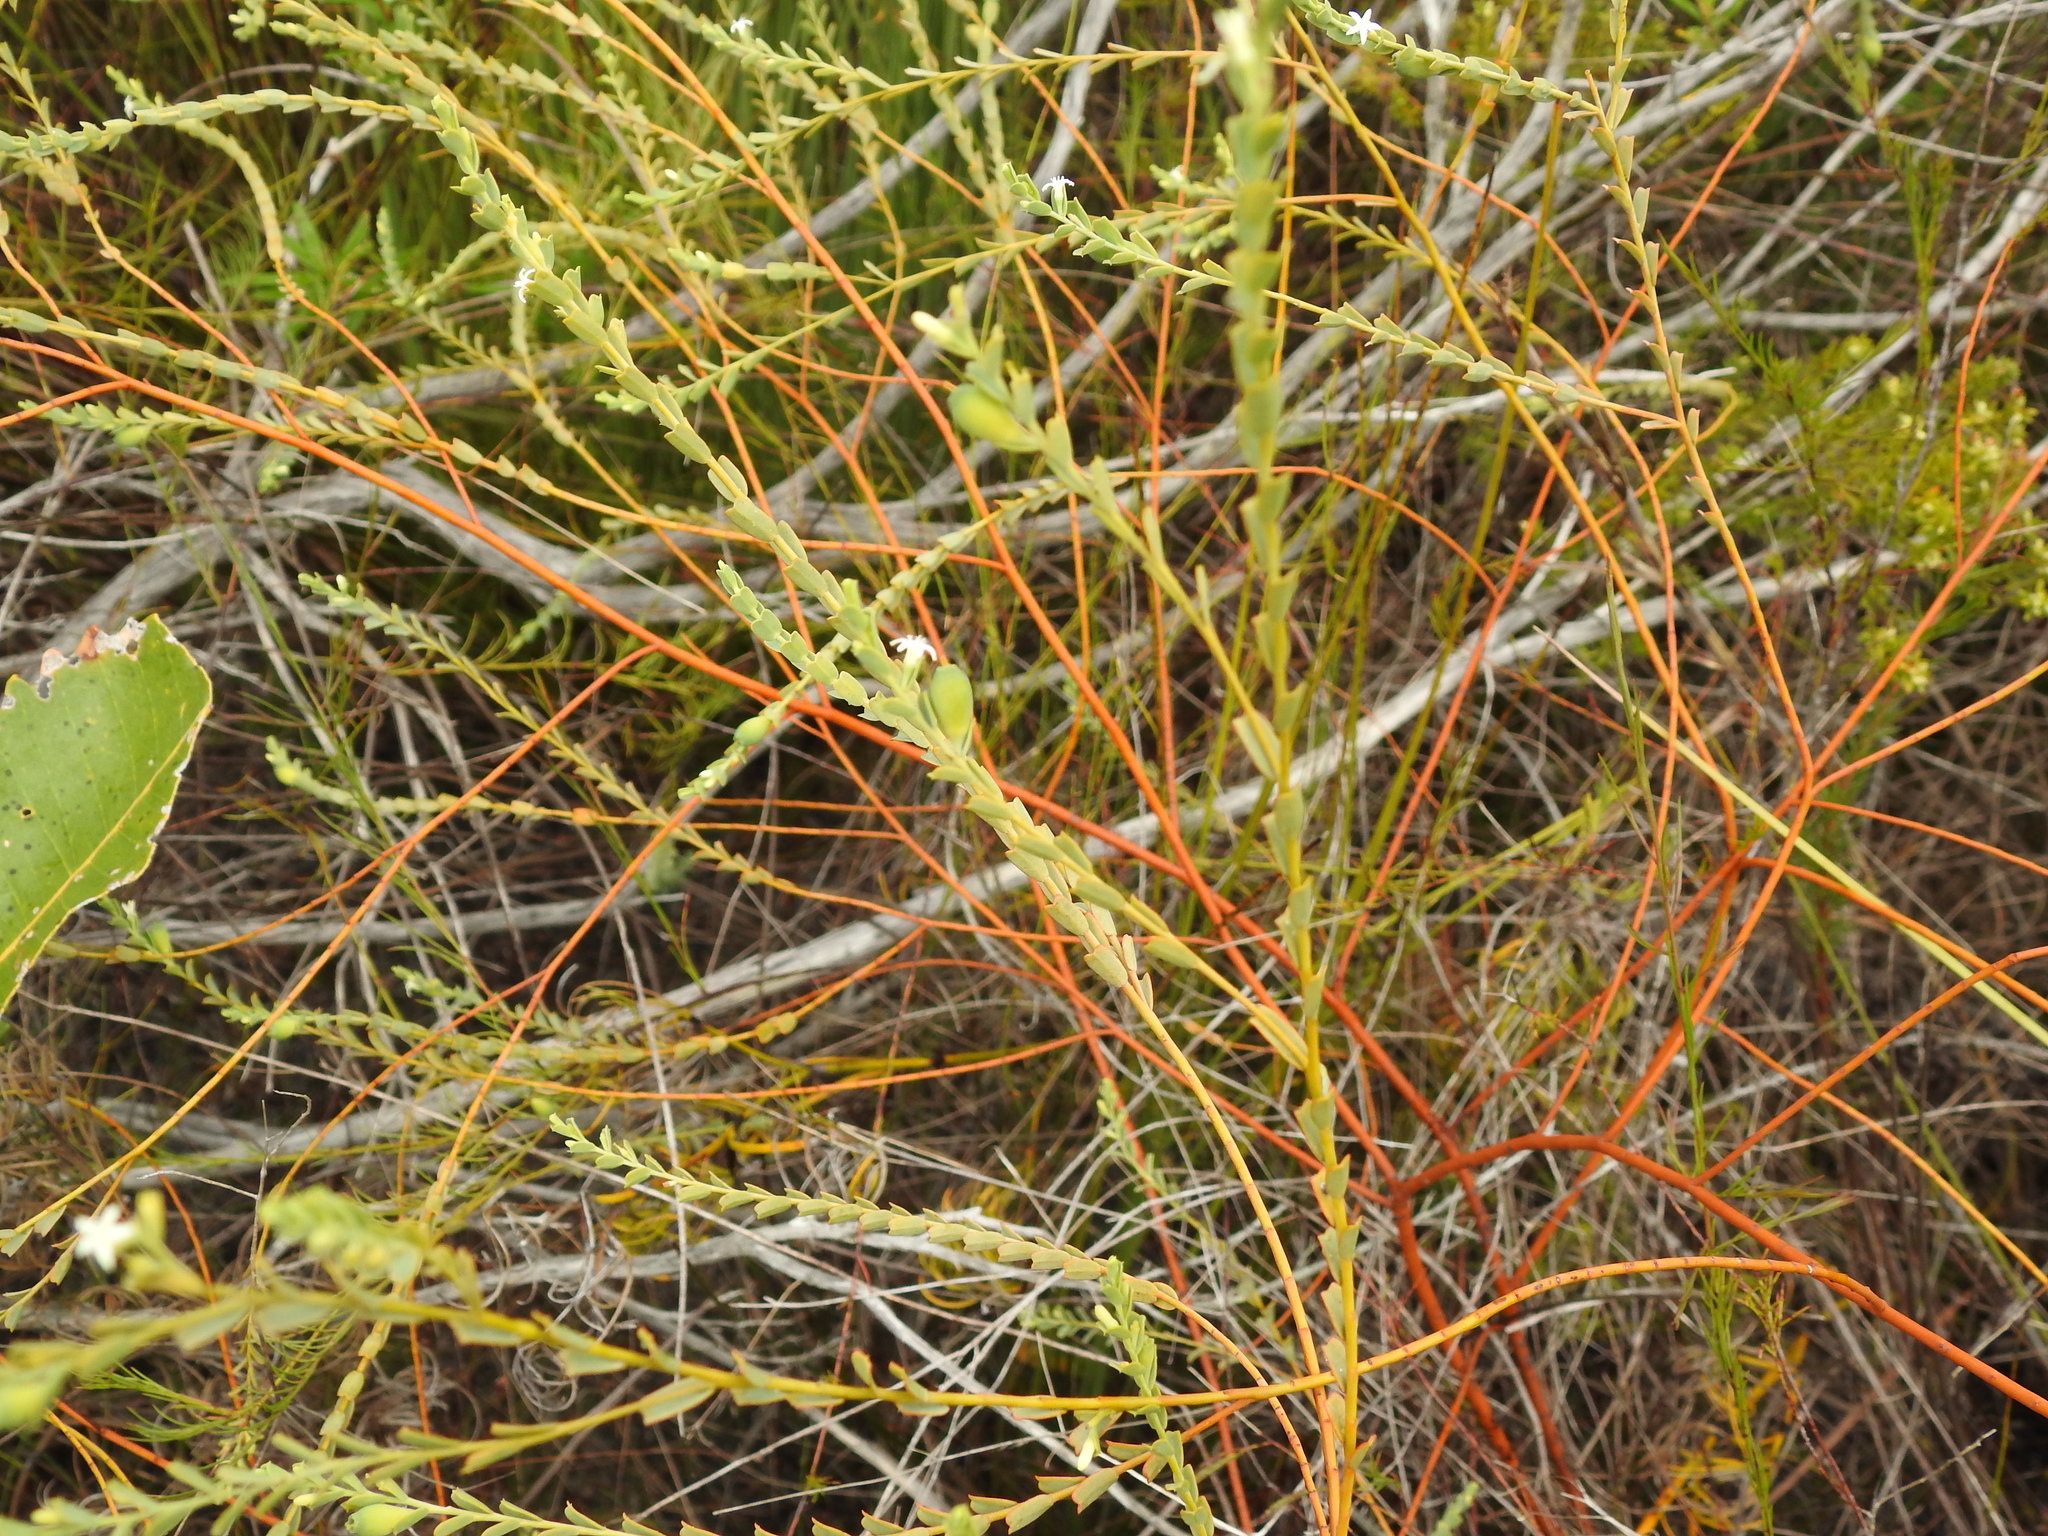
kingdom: Plantae
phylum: Tracheophyta
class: Magnoliopsida
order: Santalales
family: Olacaceae
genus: Olax
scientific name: Olax retusa
